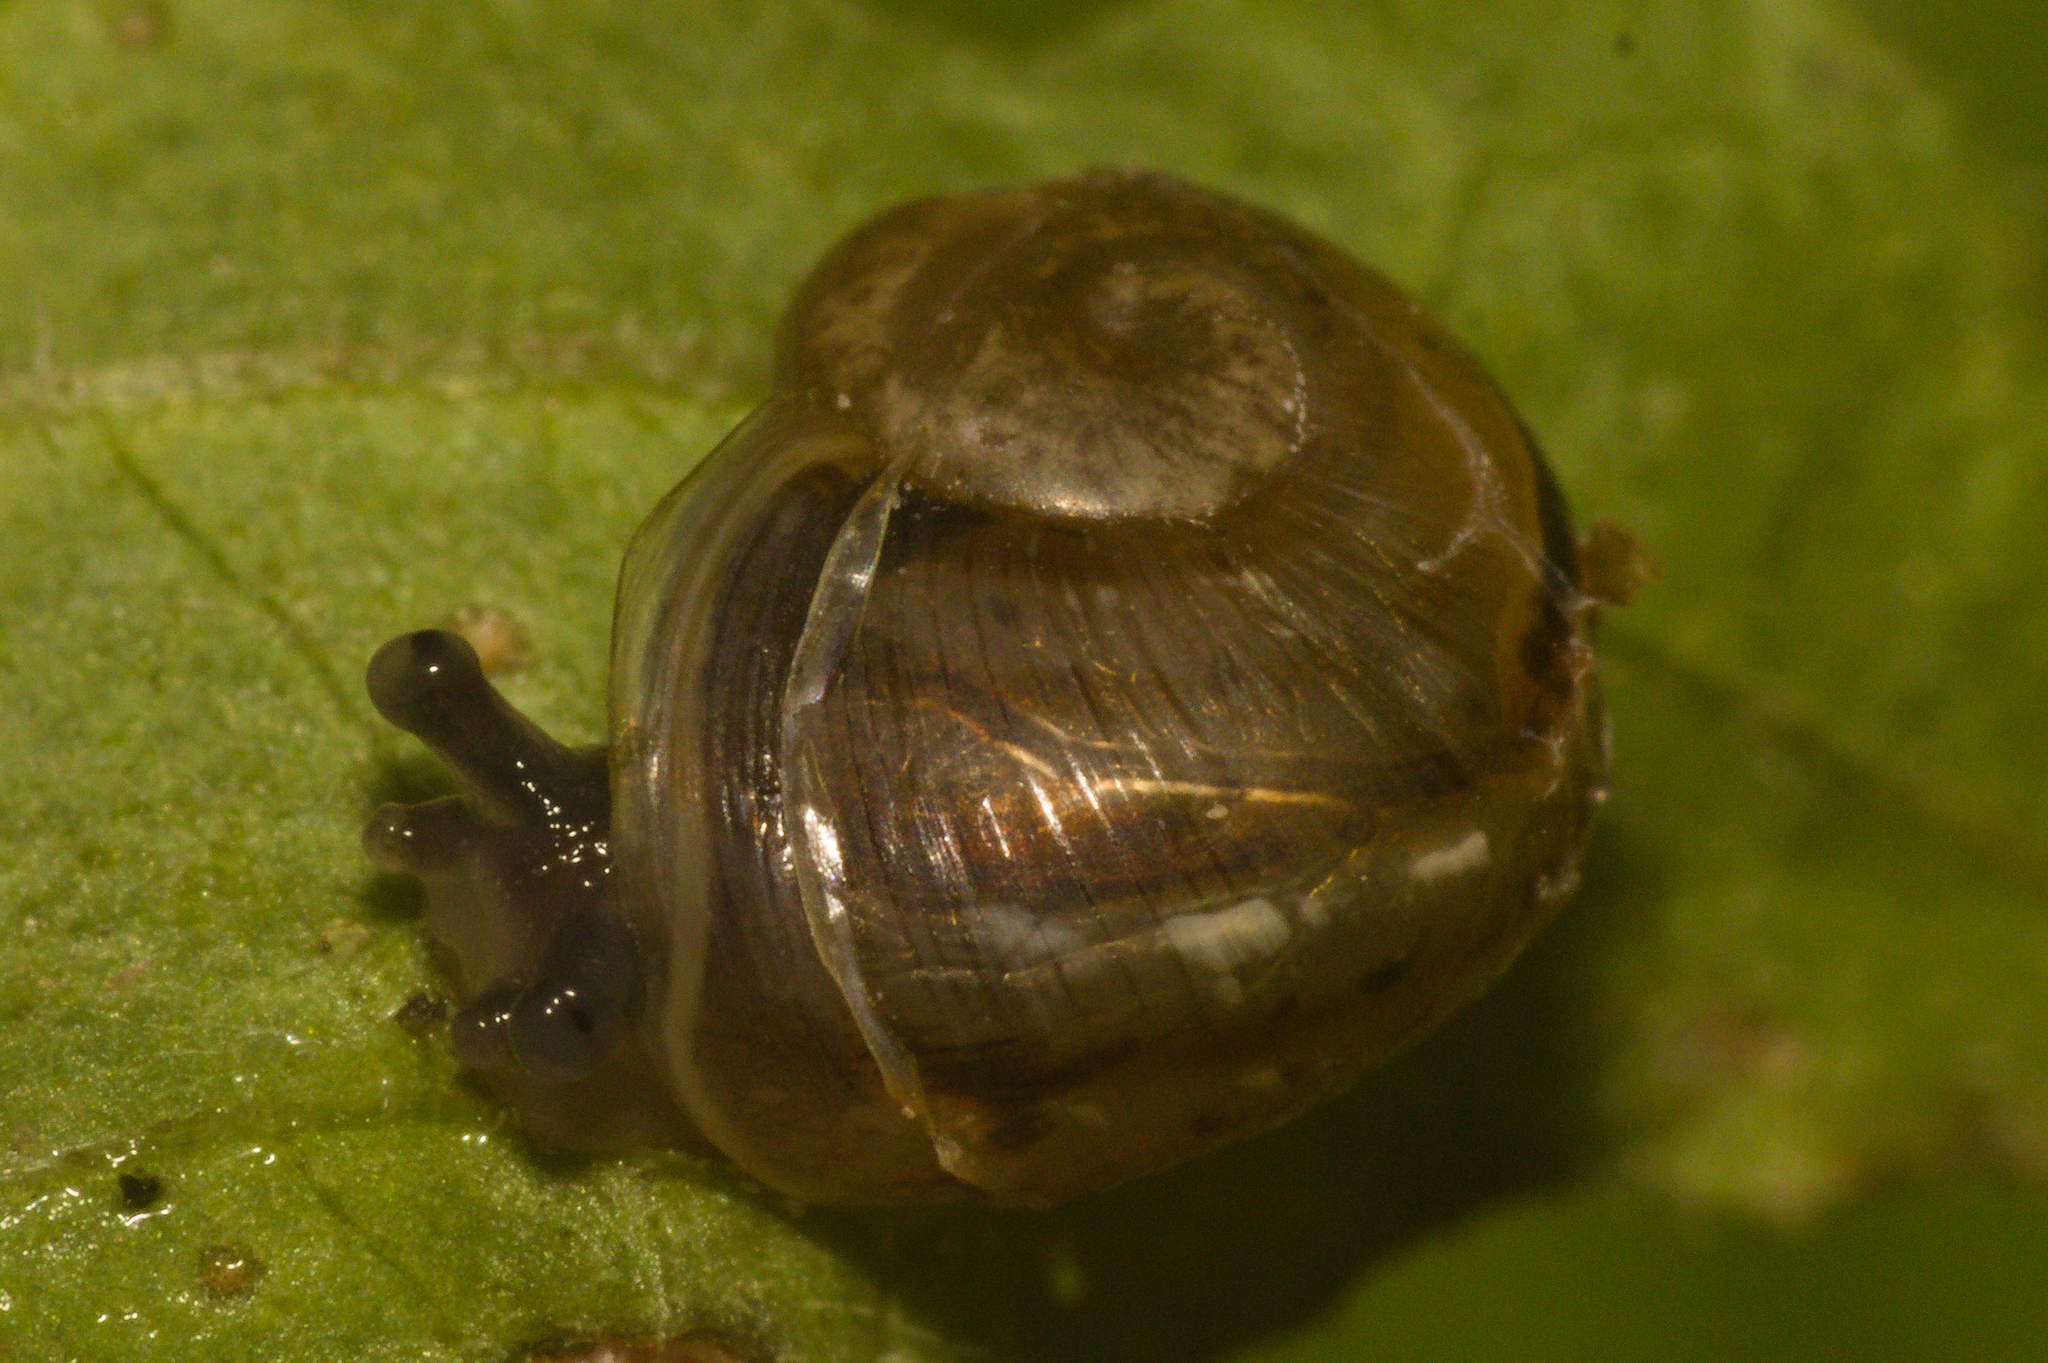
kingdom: Animalia
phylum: Mollusca
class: Gastropoda
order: Stylommatophora
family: Helicidae
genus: Cornu
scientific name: Cornu aspersum
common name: Brown garden snail
